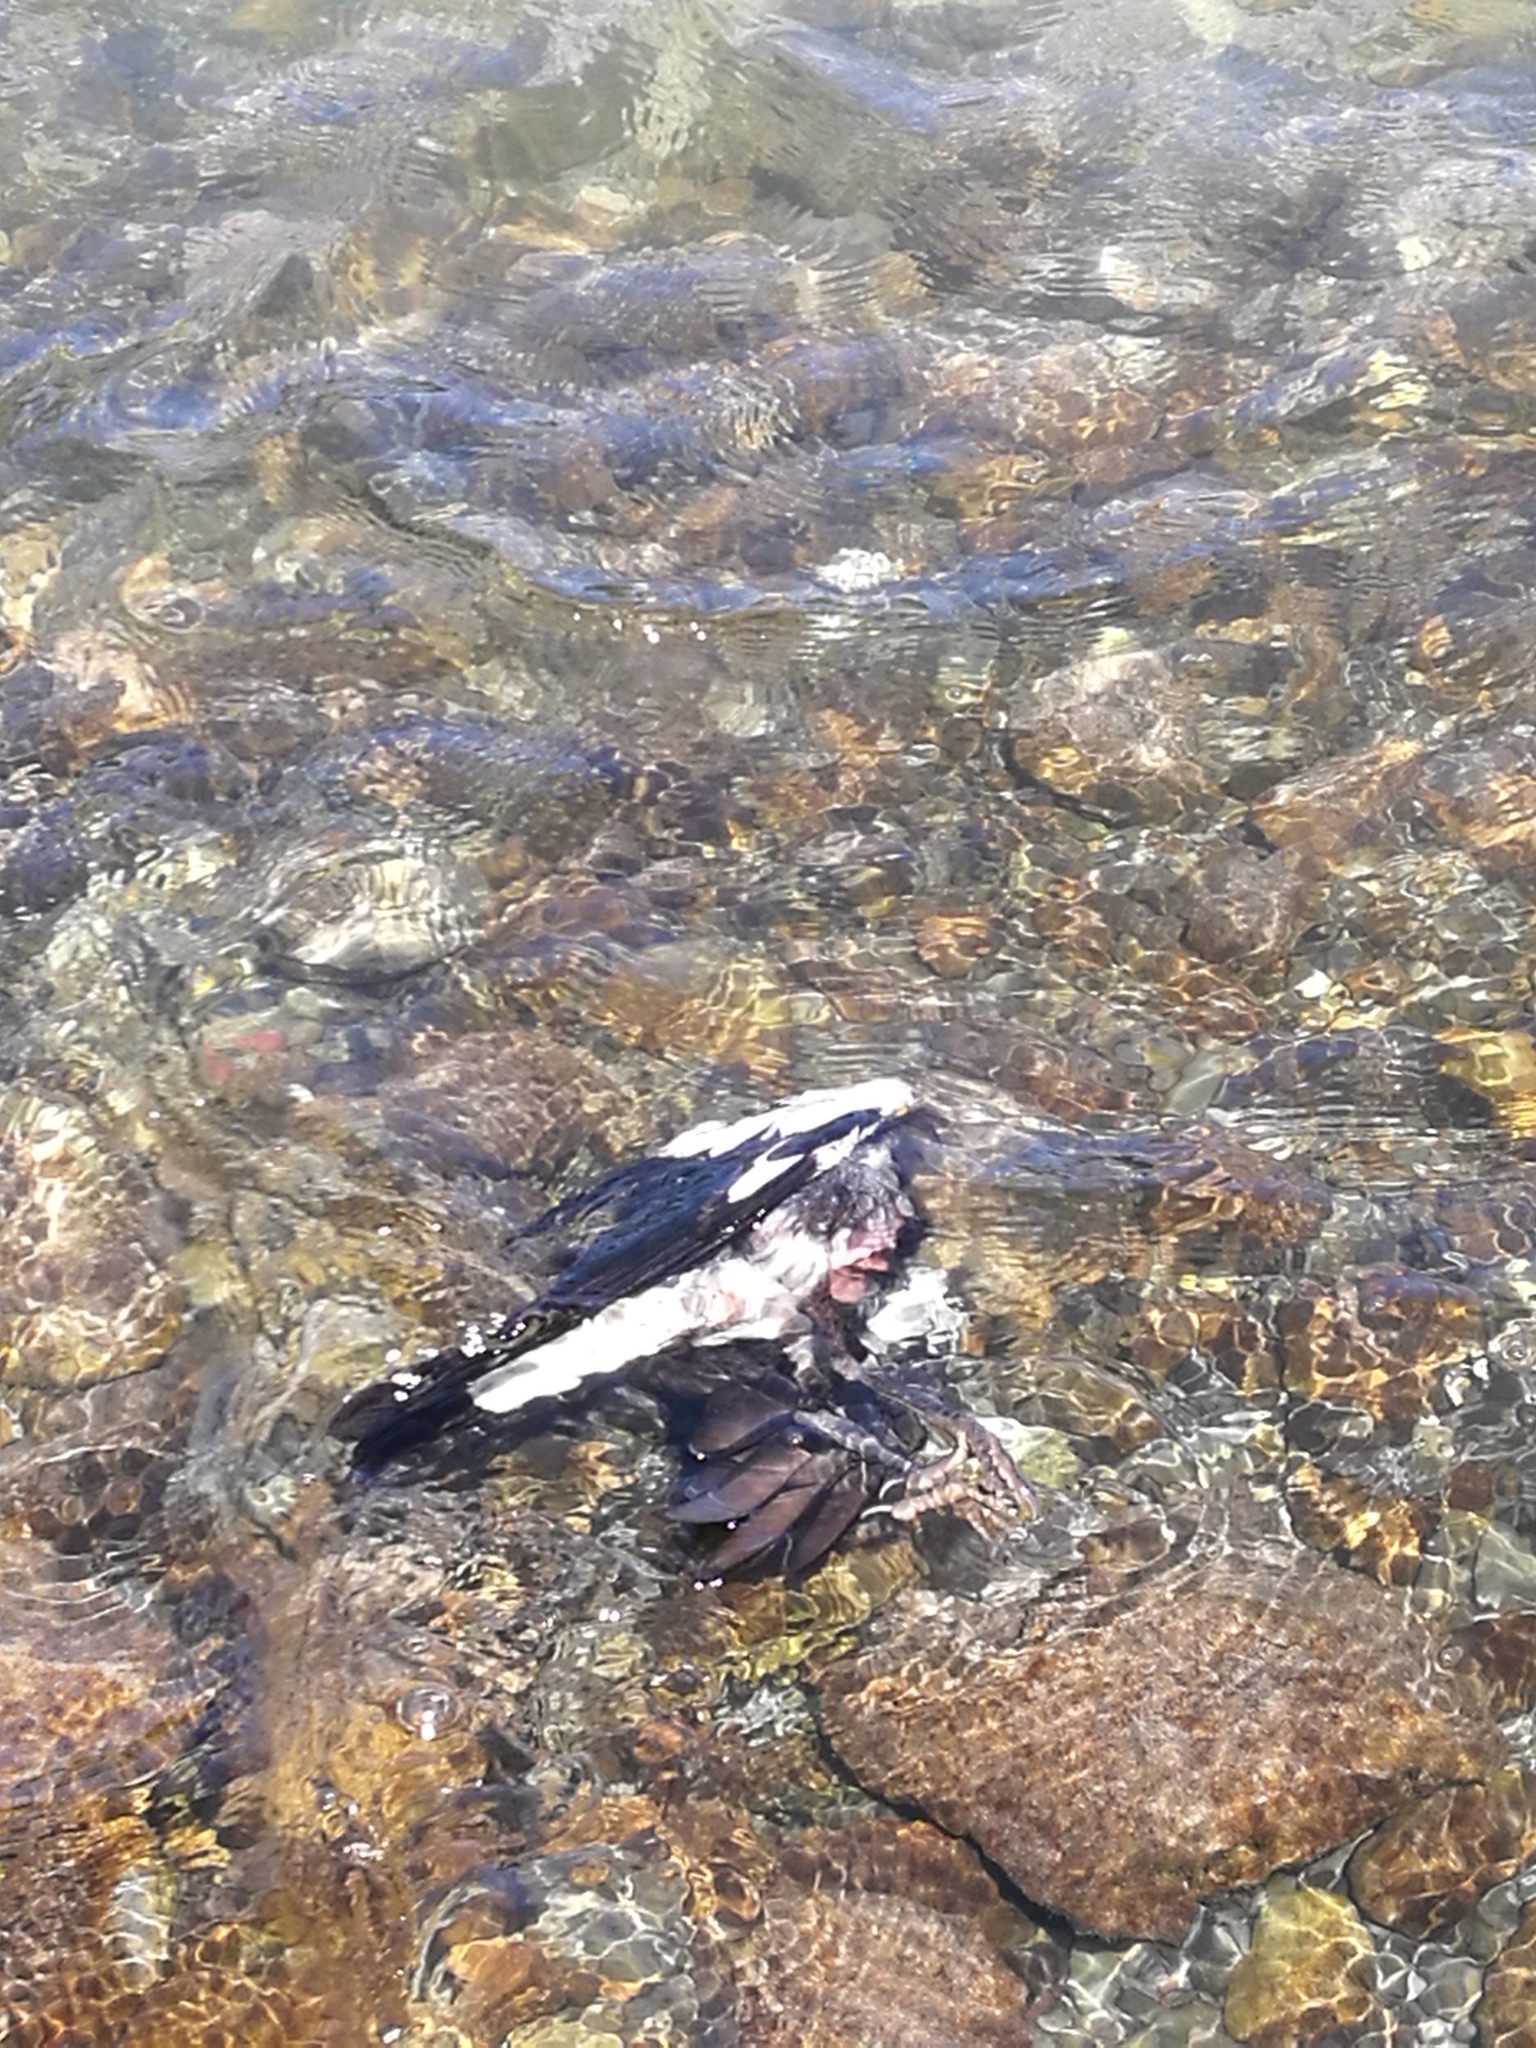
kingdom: Animalia
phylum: Chordata
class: Aves
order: Passeriformes
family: Cracticidae
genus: Gymnorhina
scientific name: Gymnorhina tibicen
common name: Australian magpie
